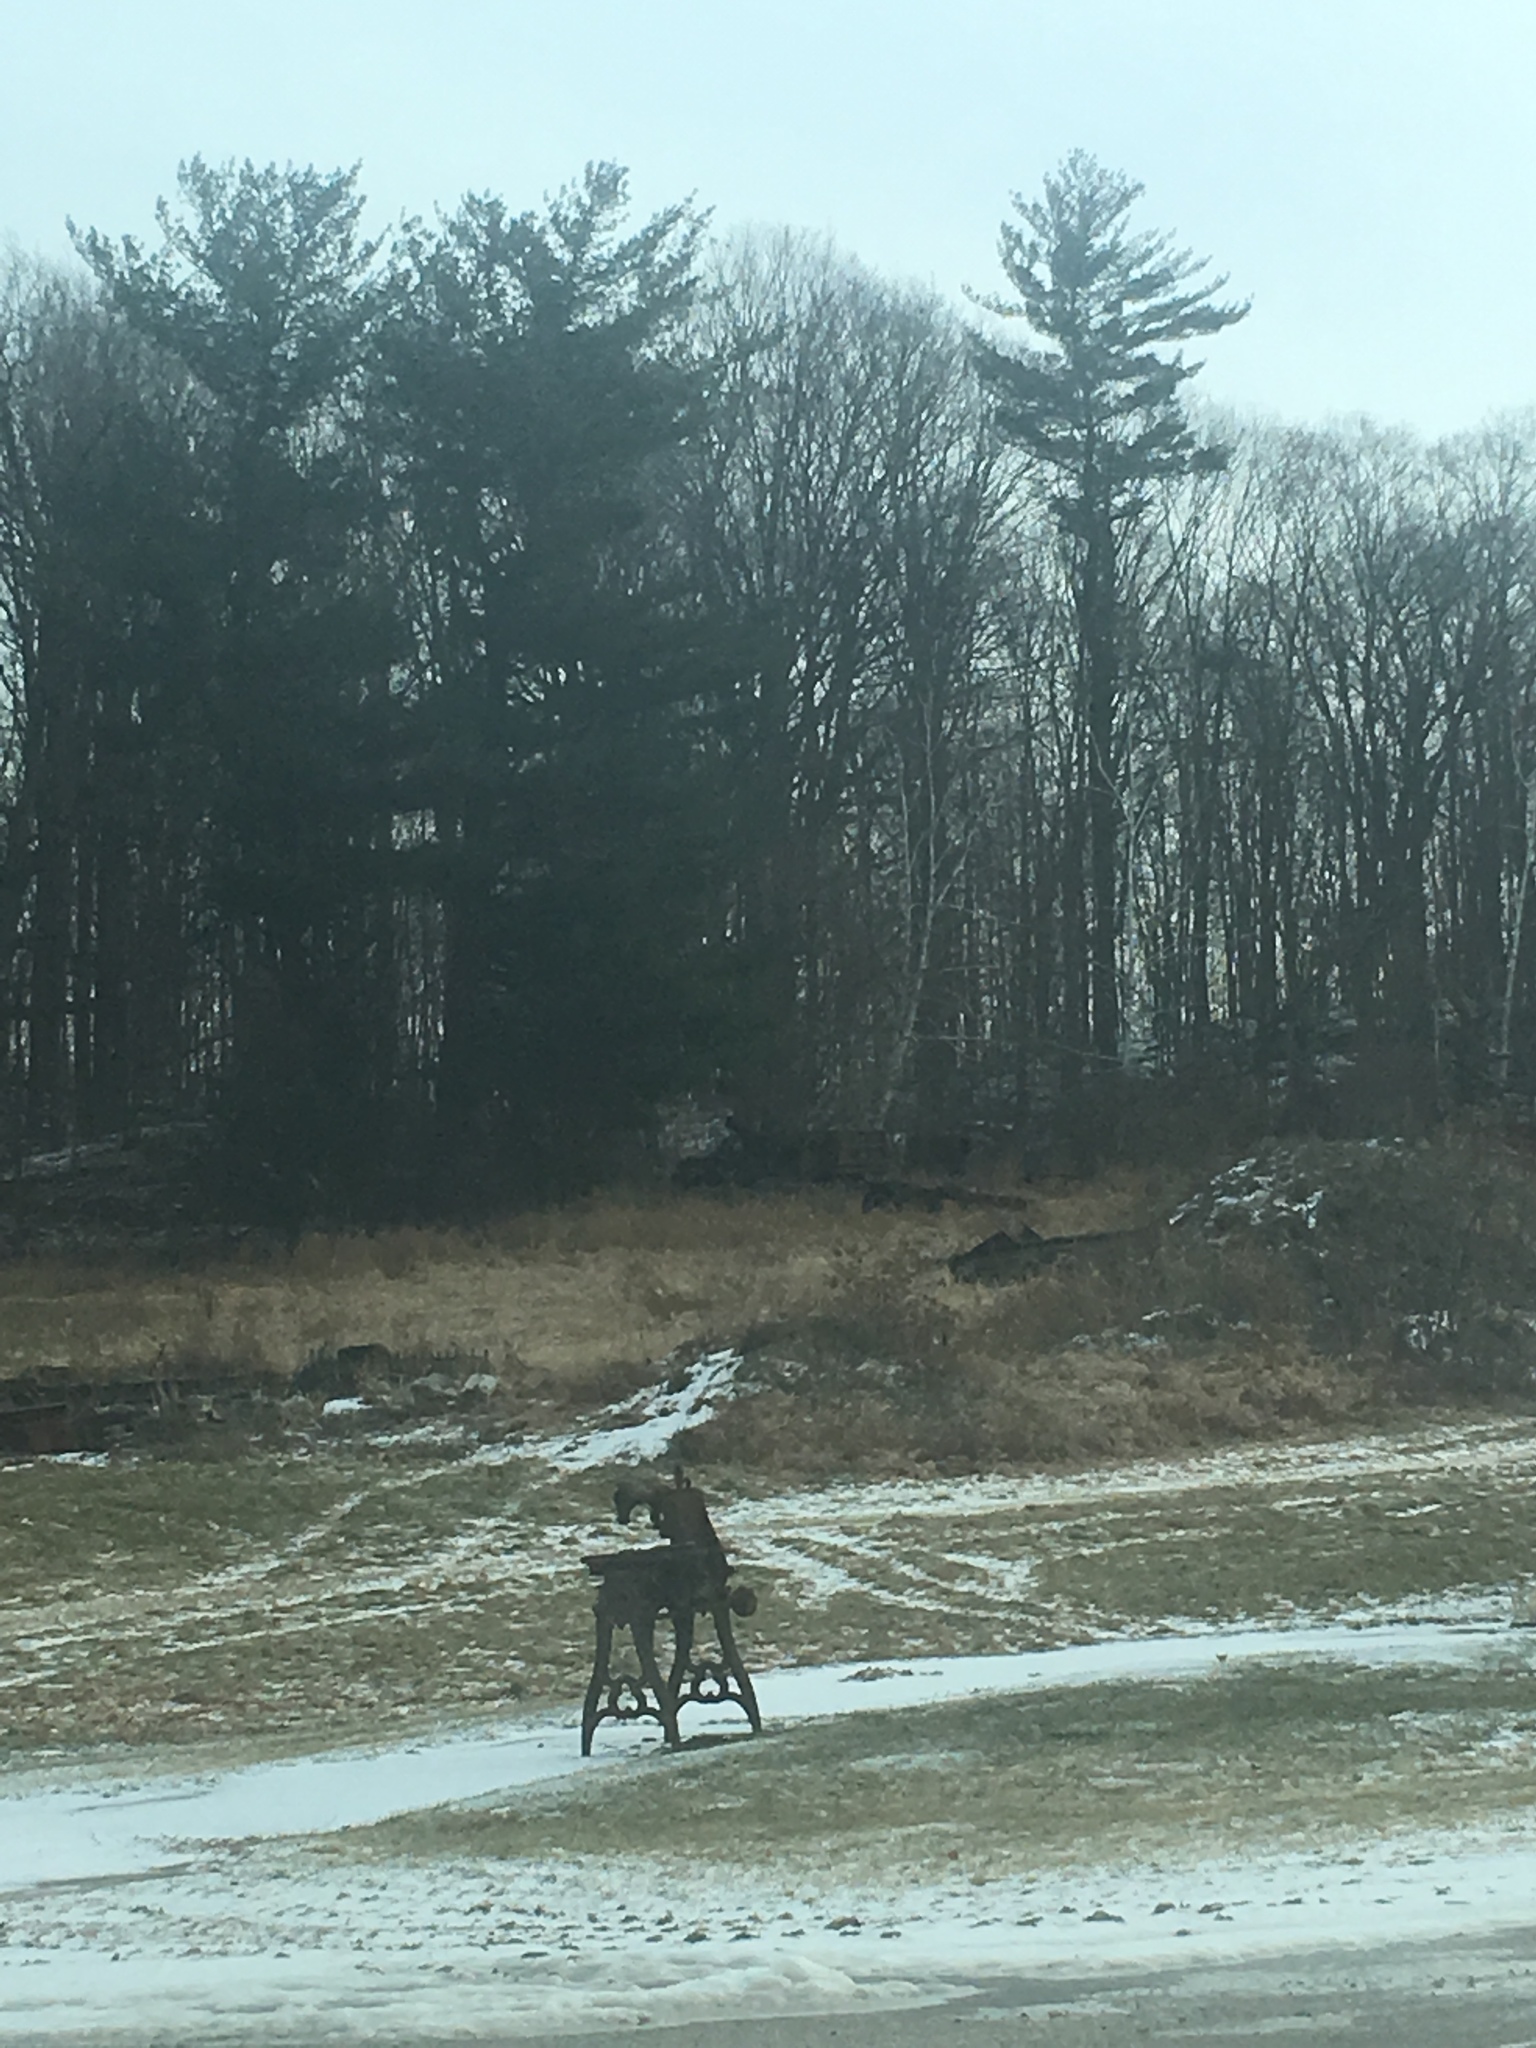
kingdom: Plantae
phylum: Tracheophyta
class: Pinopsida
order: Pinales
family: Pinaceae
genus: Pinus
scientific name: Pinus strobus
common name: Weymouth pine
